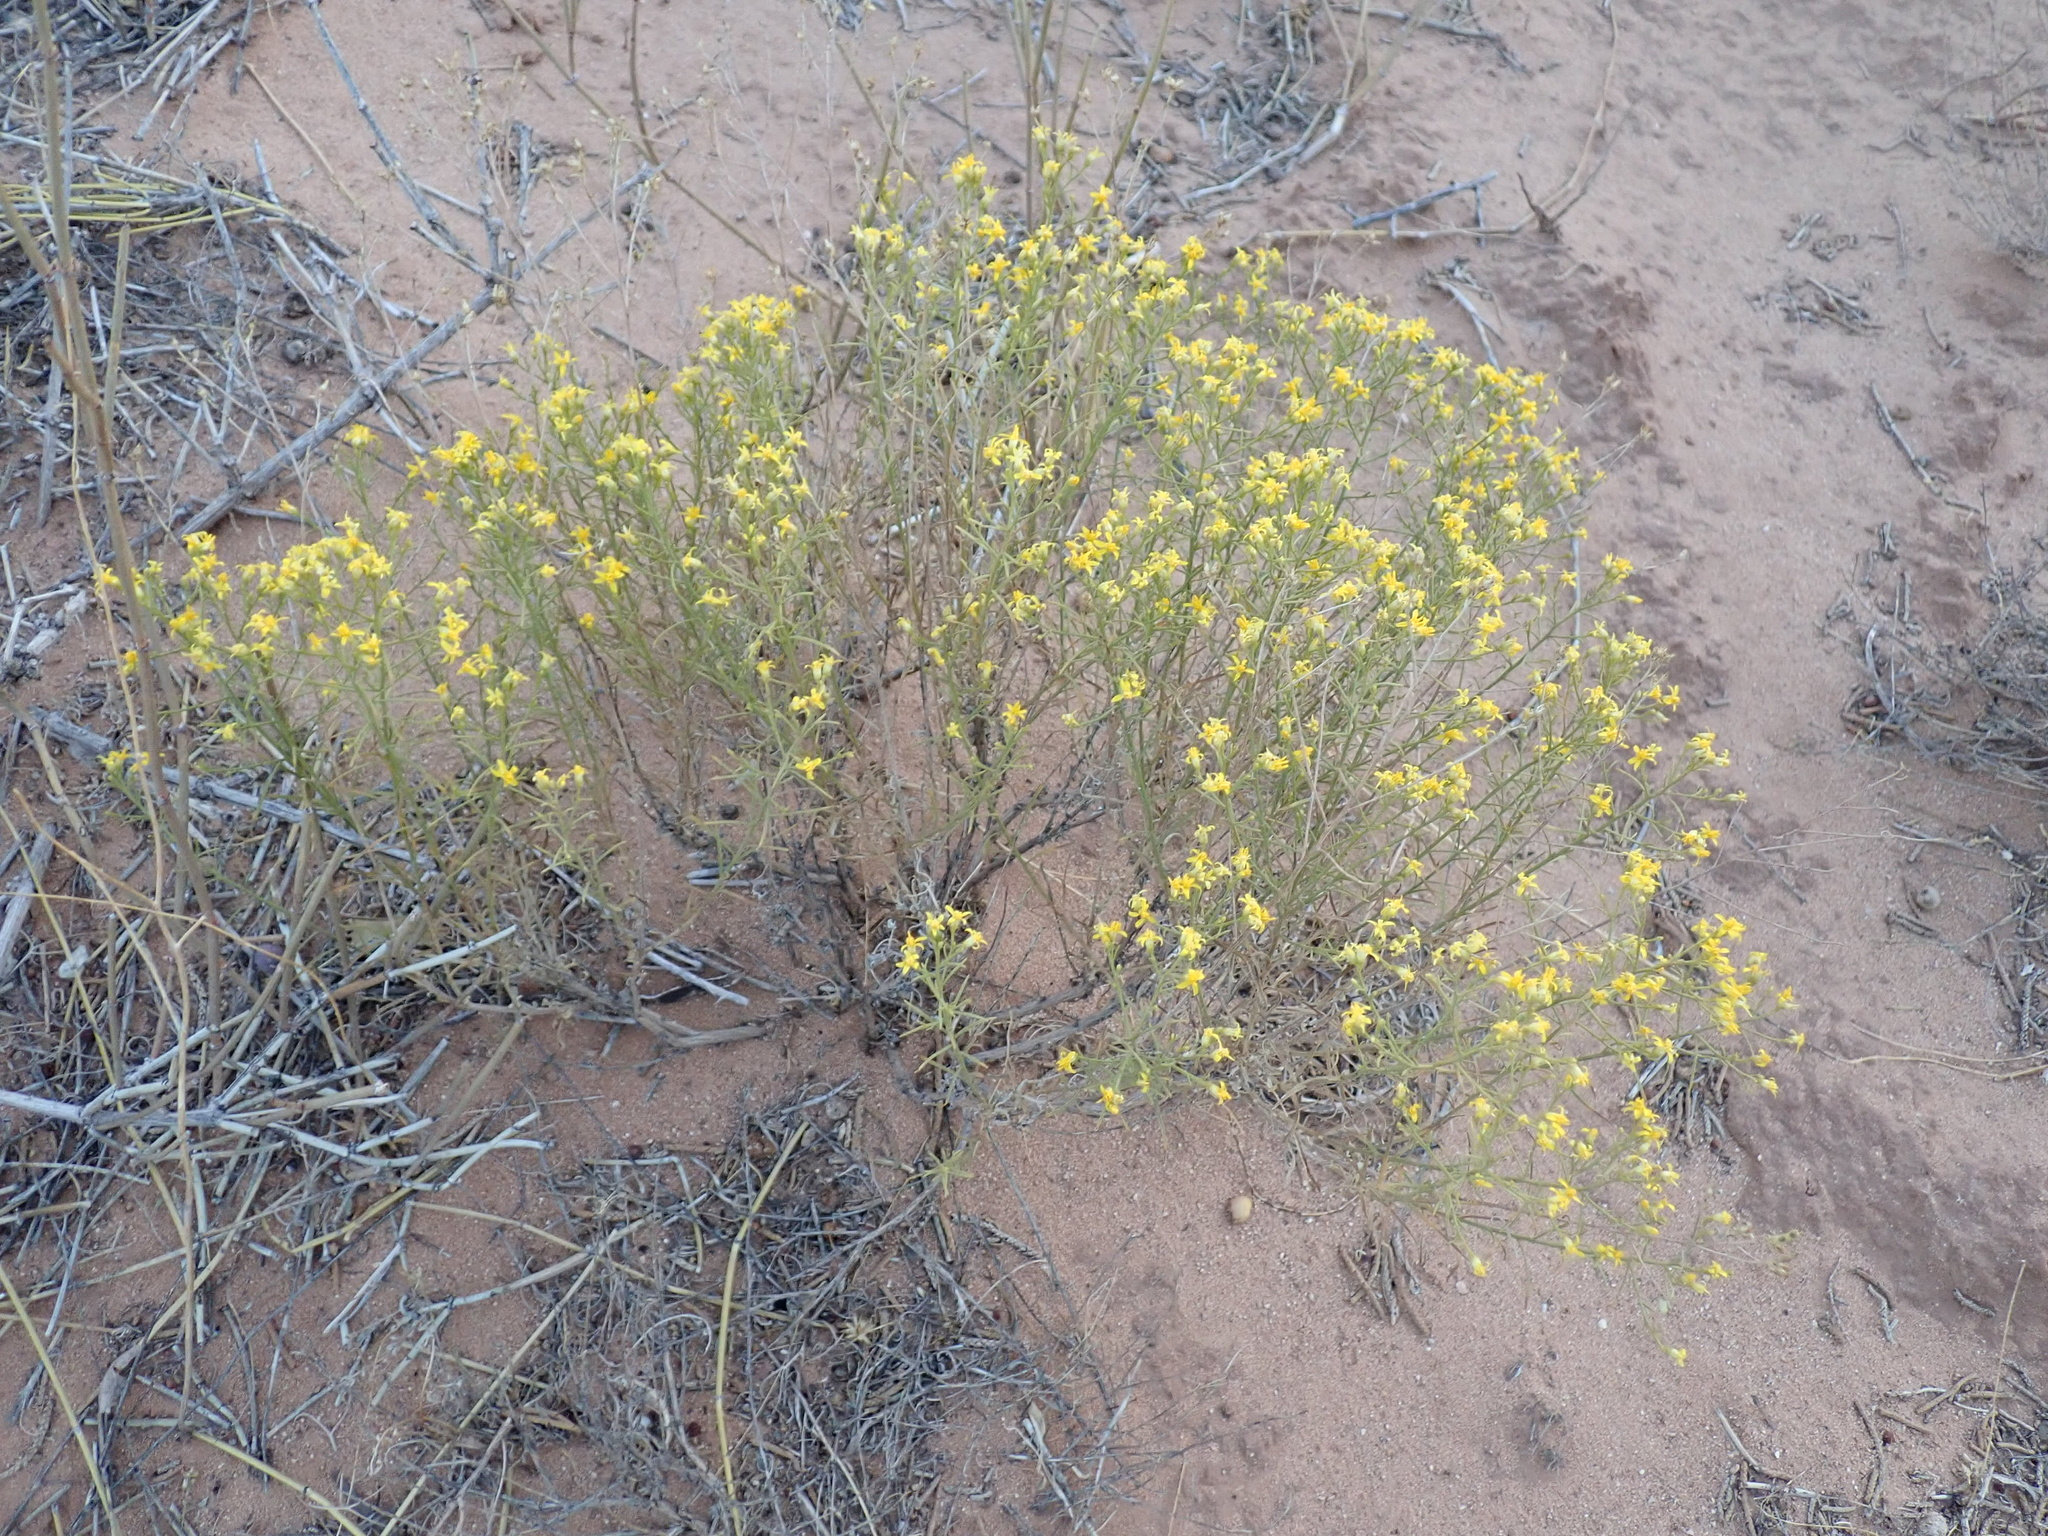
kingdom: Plantae
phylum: Tracheophyta
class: Magnoliopsida
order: Asterales
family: Asteraceae
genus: Gutierrezia
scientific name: Gutierrezia sarothrae
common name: Broom snakeweed
